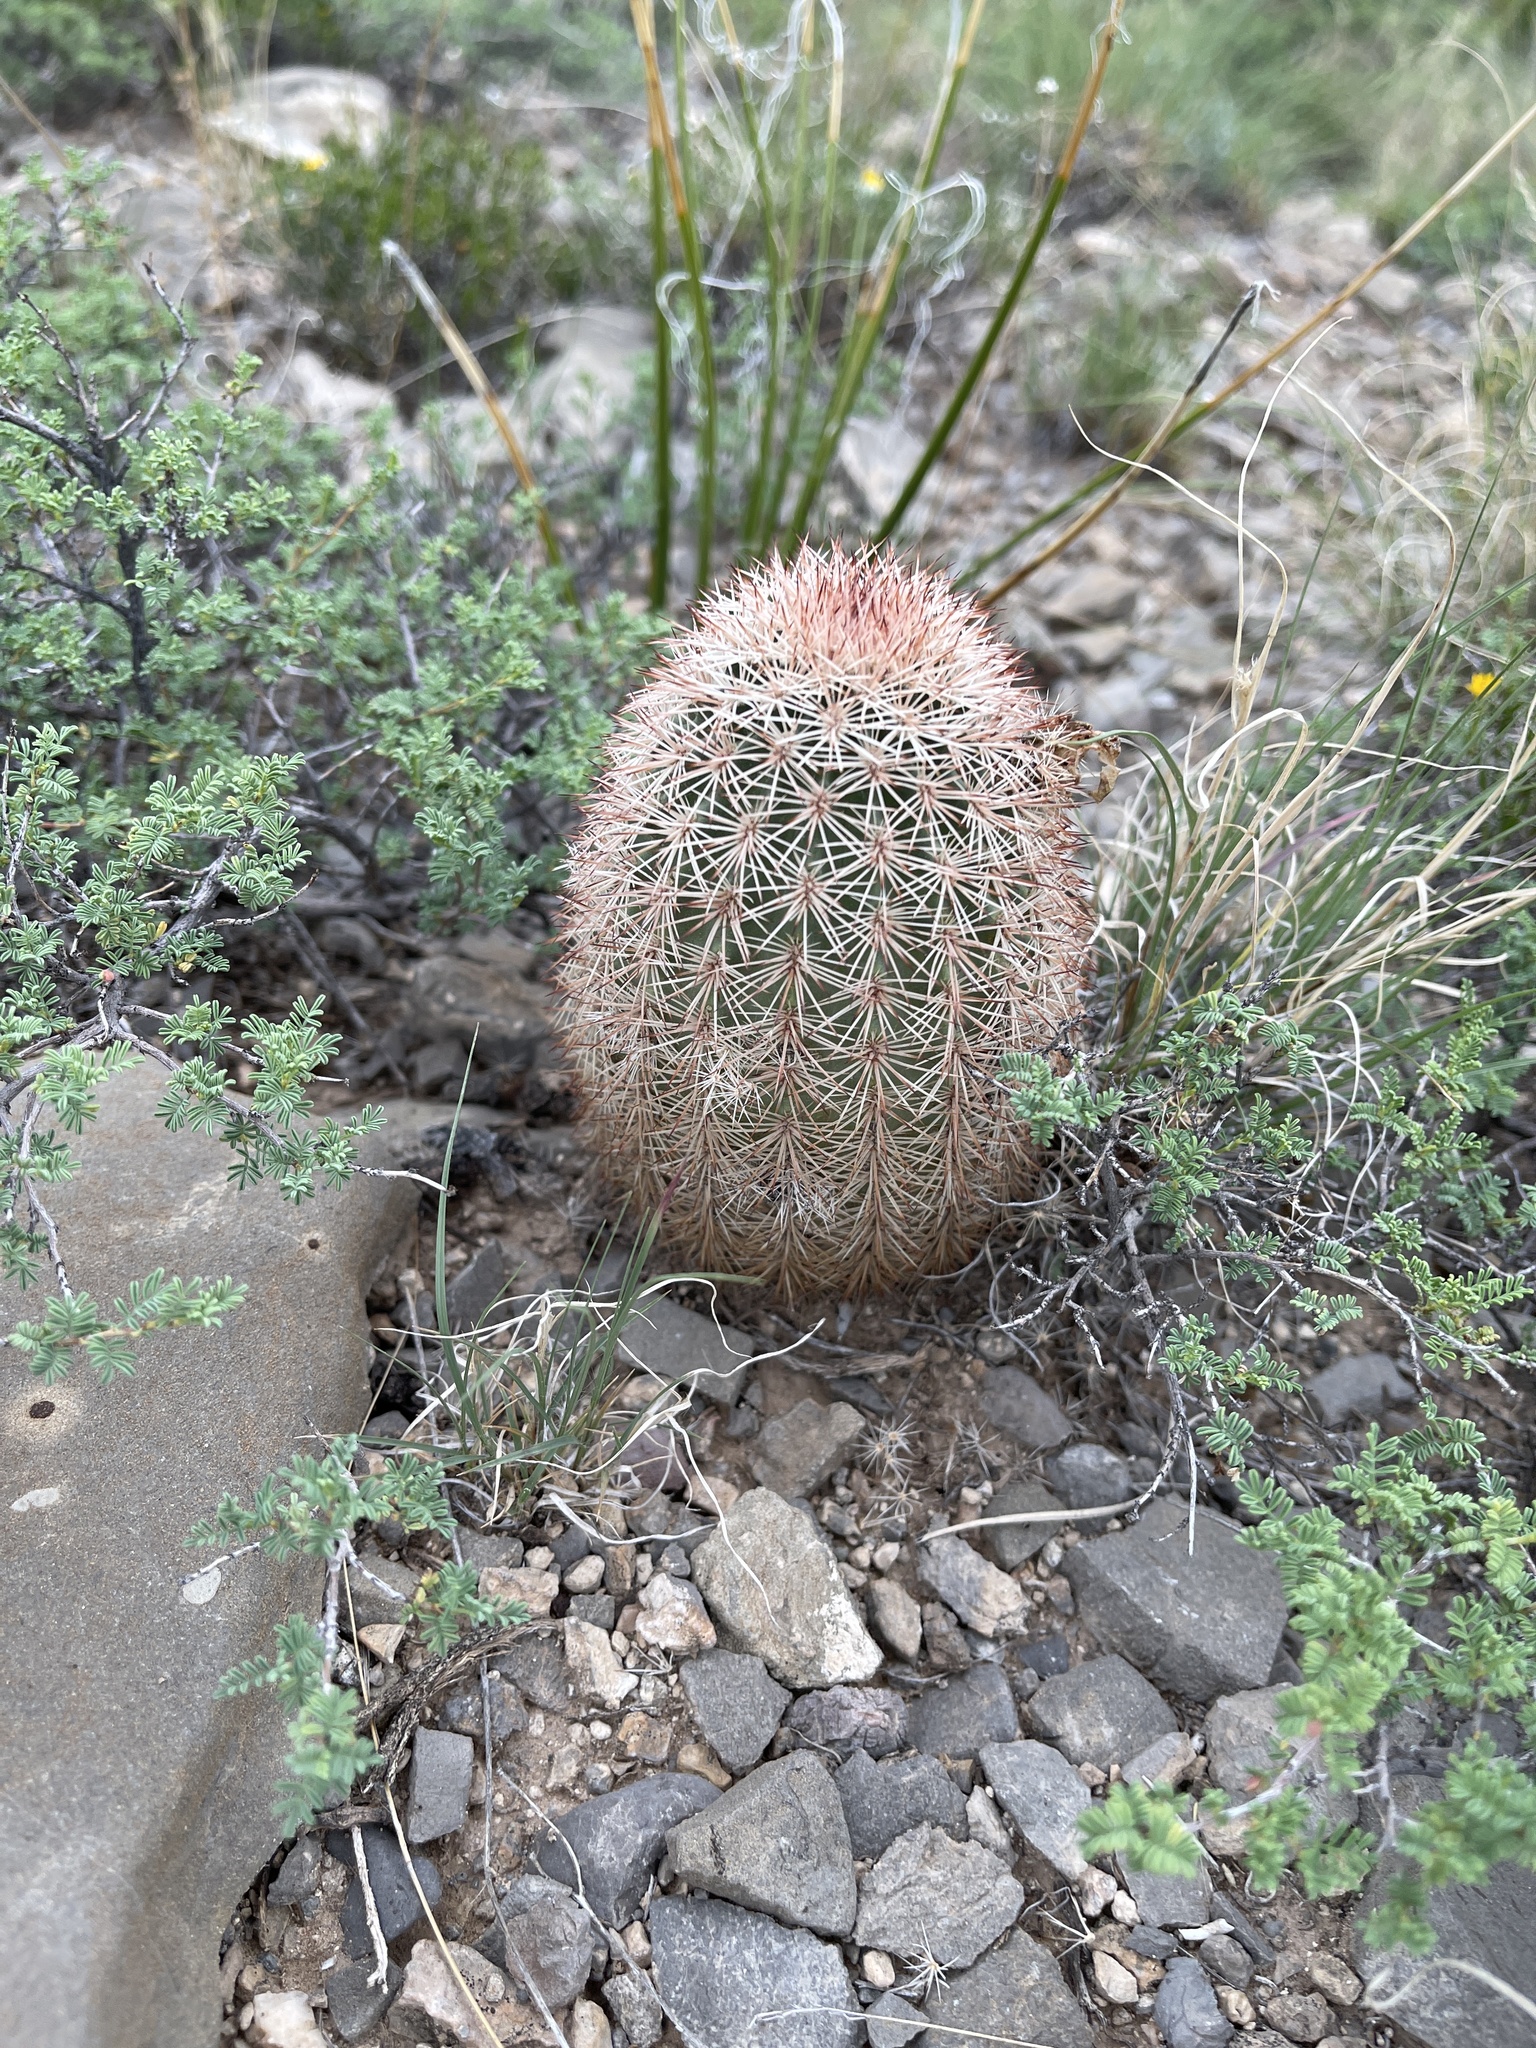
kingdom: Plantae
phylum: Tracheophyta
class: Magnoliopsida
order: Caryophyllales
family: Cactaceae
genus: Echinocereus
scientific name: Echinocereus dasyacanthus
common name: Spiny hedgehog cactus
